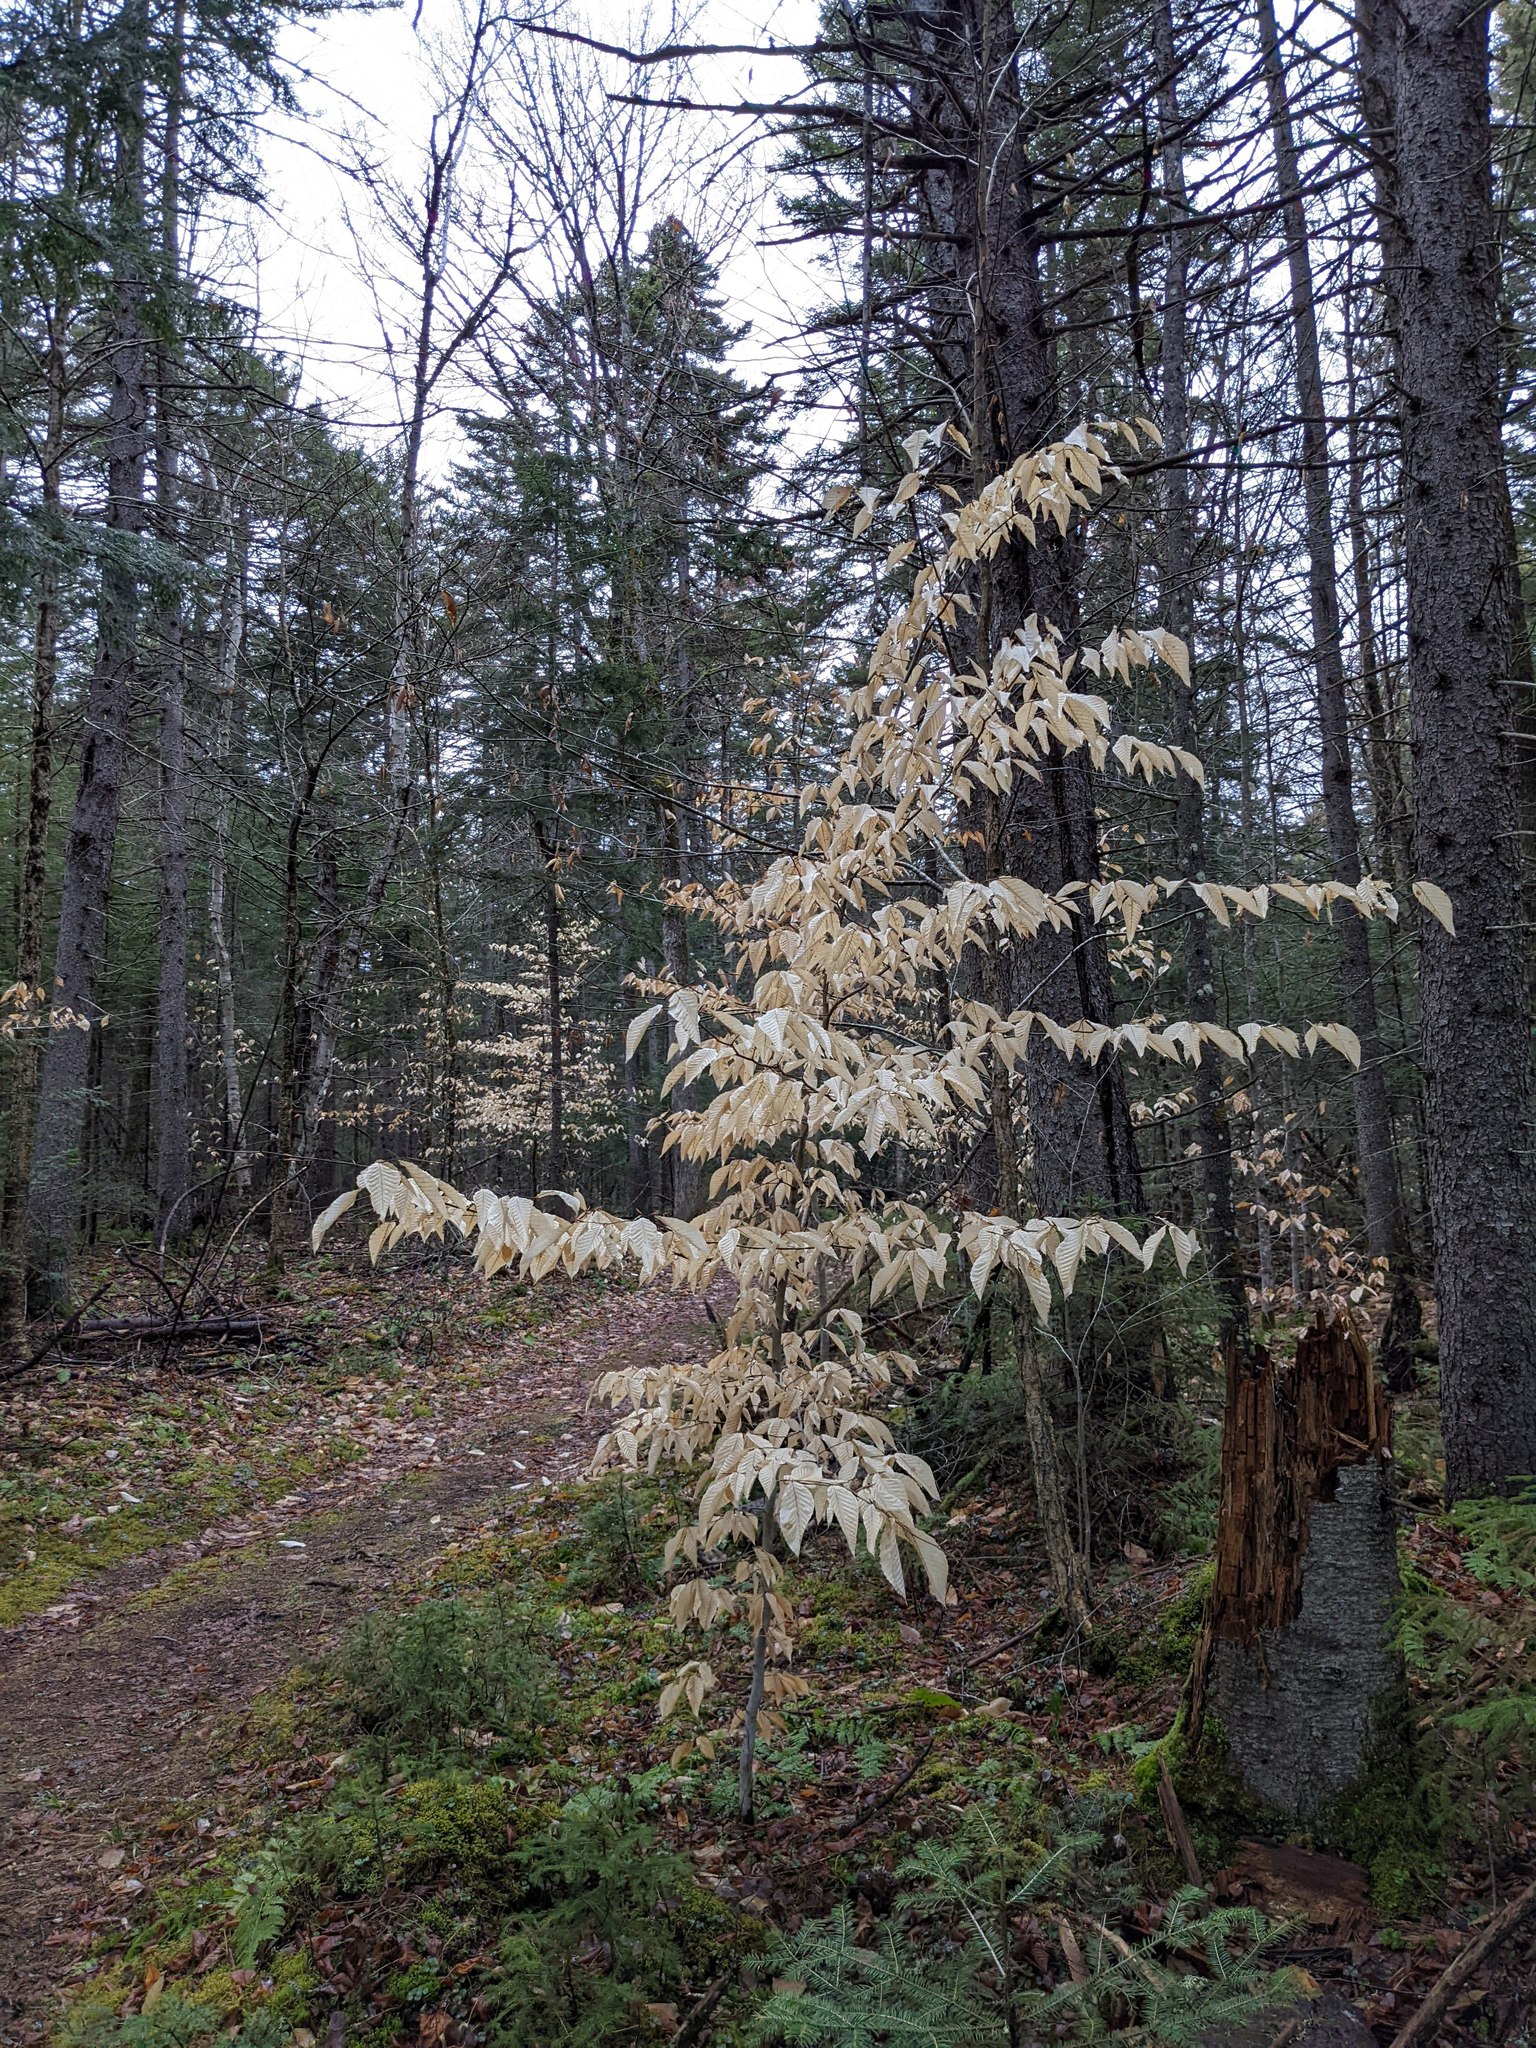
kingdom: Plantae
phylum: Tracheophyta
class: Magnoliopsida
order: Fagales
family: Fagaceae
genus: Fagus
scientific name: Fagus grandifolia
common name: American beech
